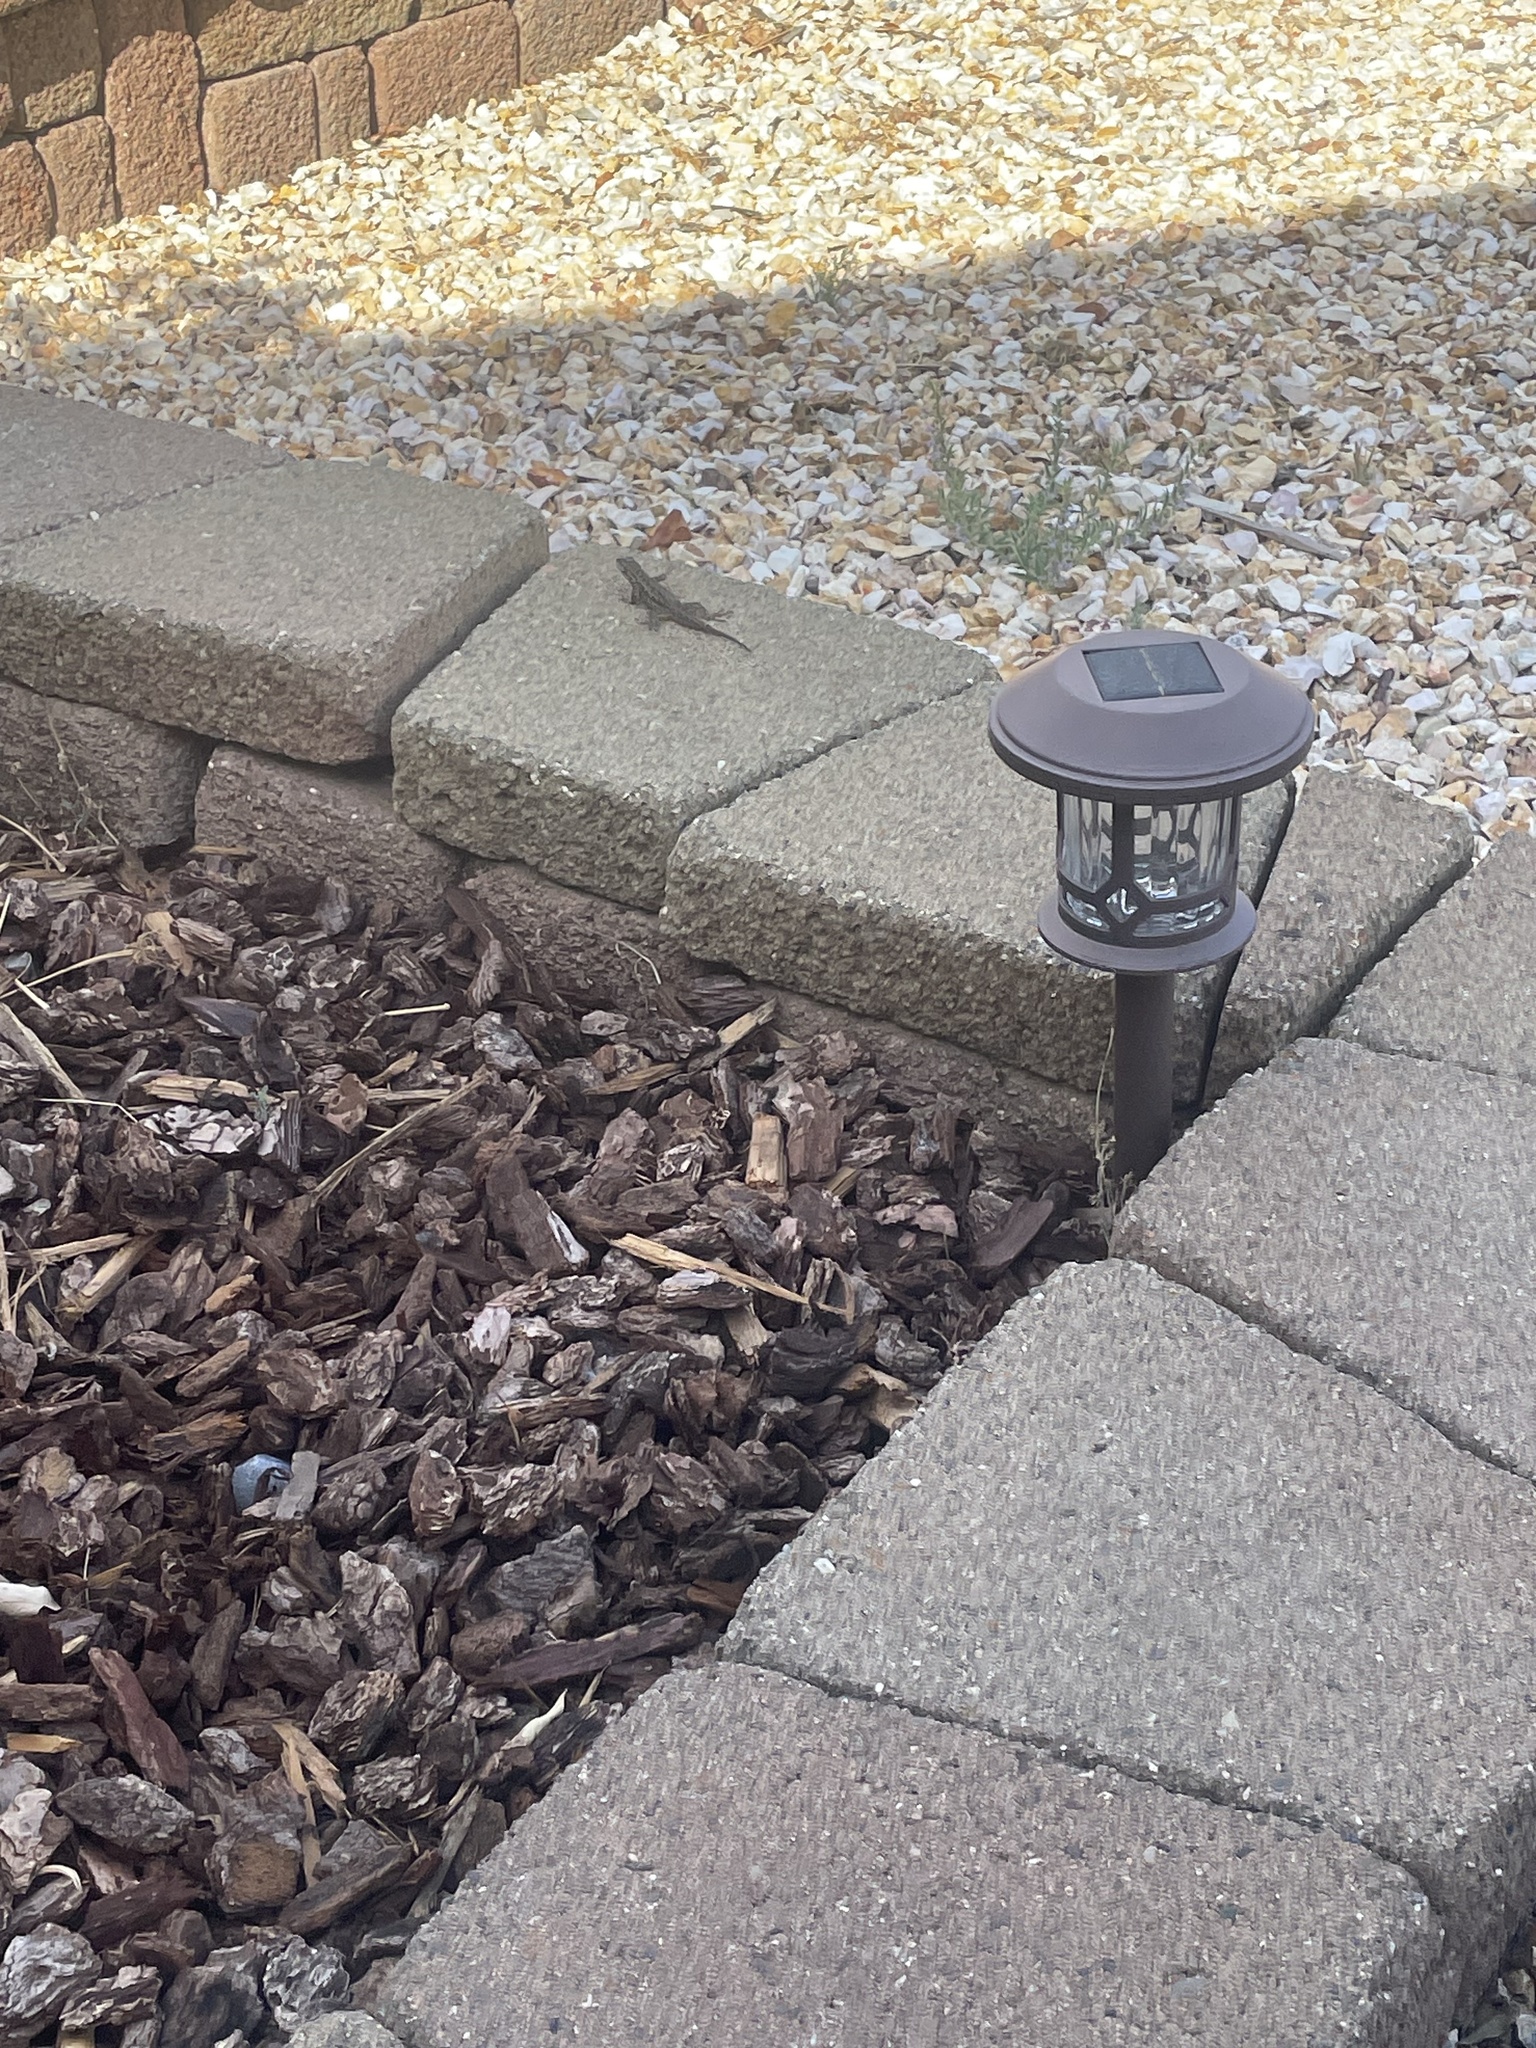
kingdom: Animalia
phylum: Chordata
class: Squamata
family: Phrynosomatidae
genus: Sceloporus
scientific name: Sceloporus occidentalis
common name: Western fence lizard
